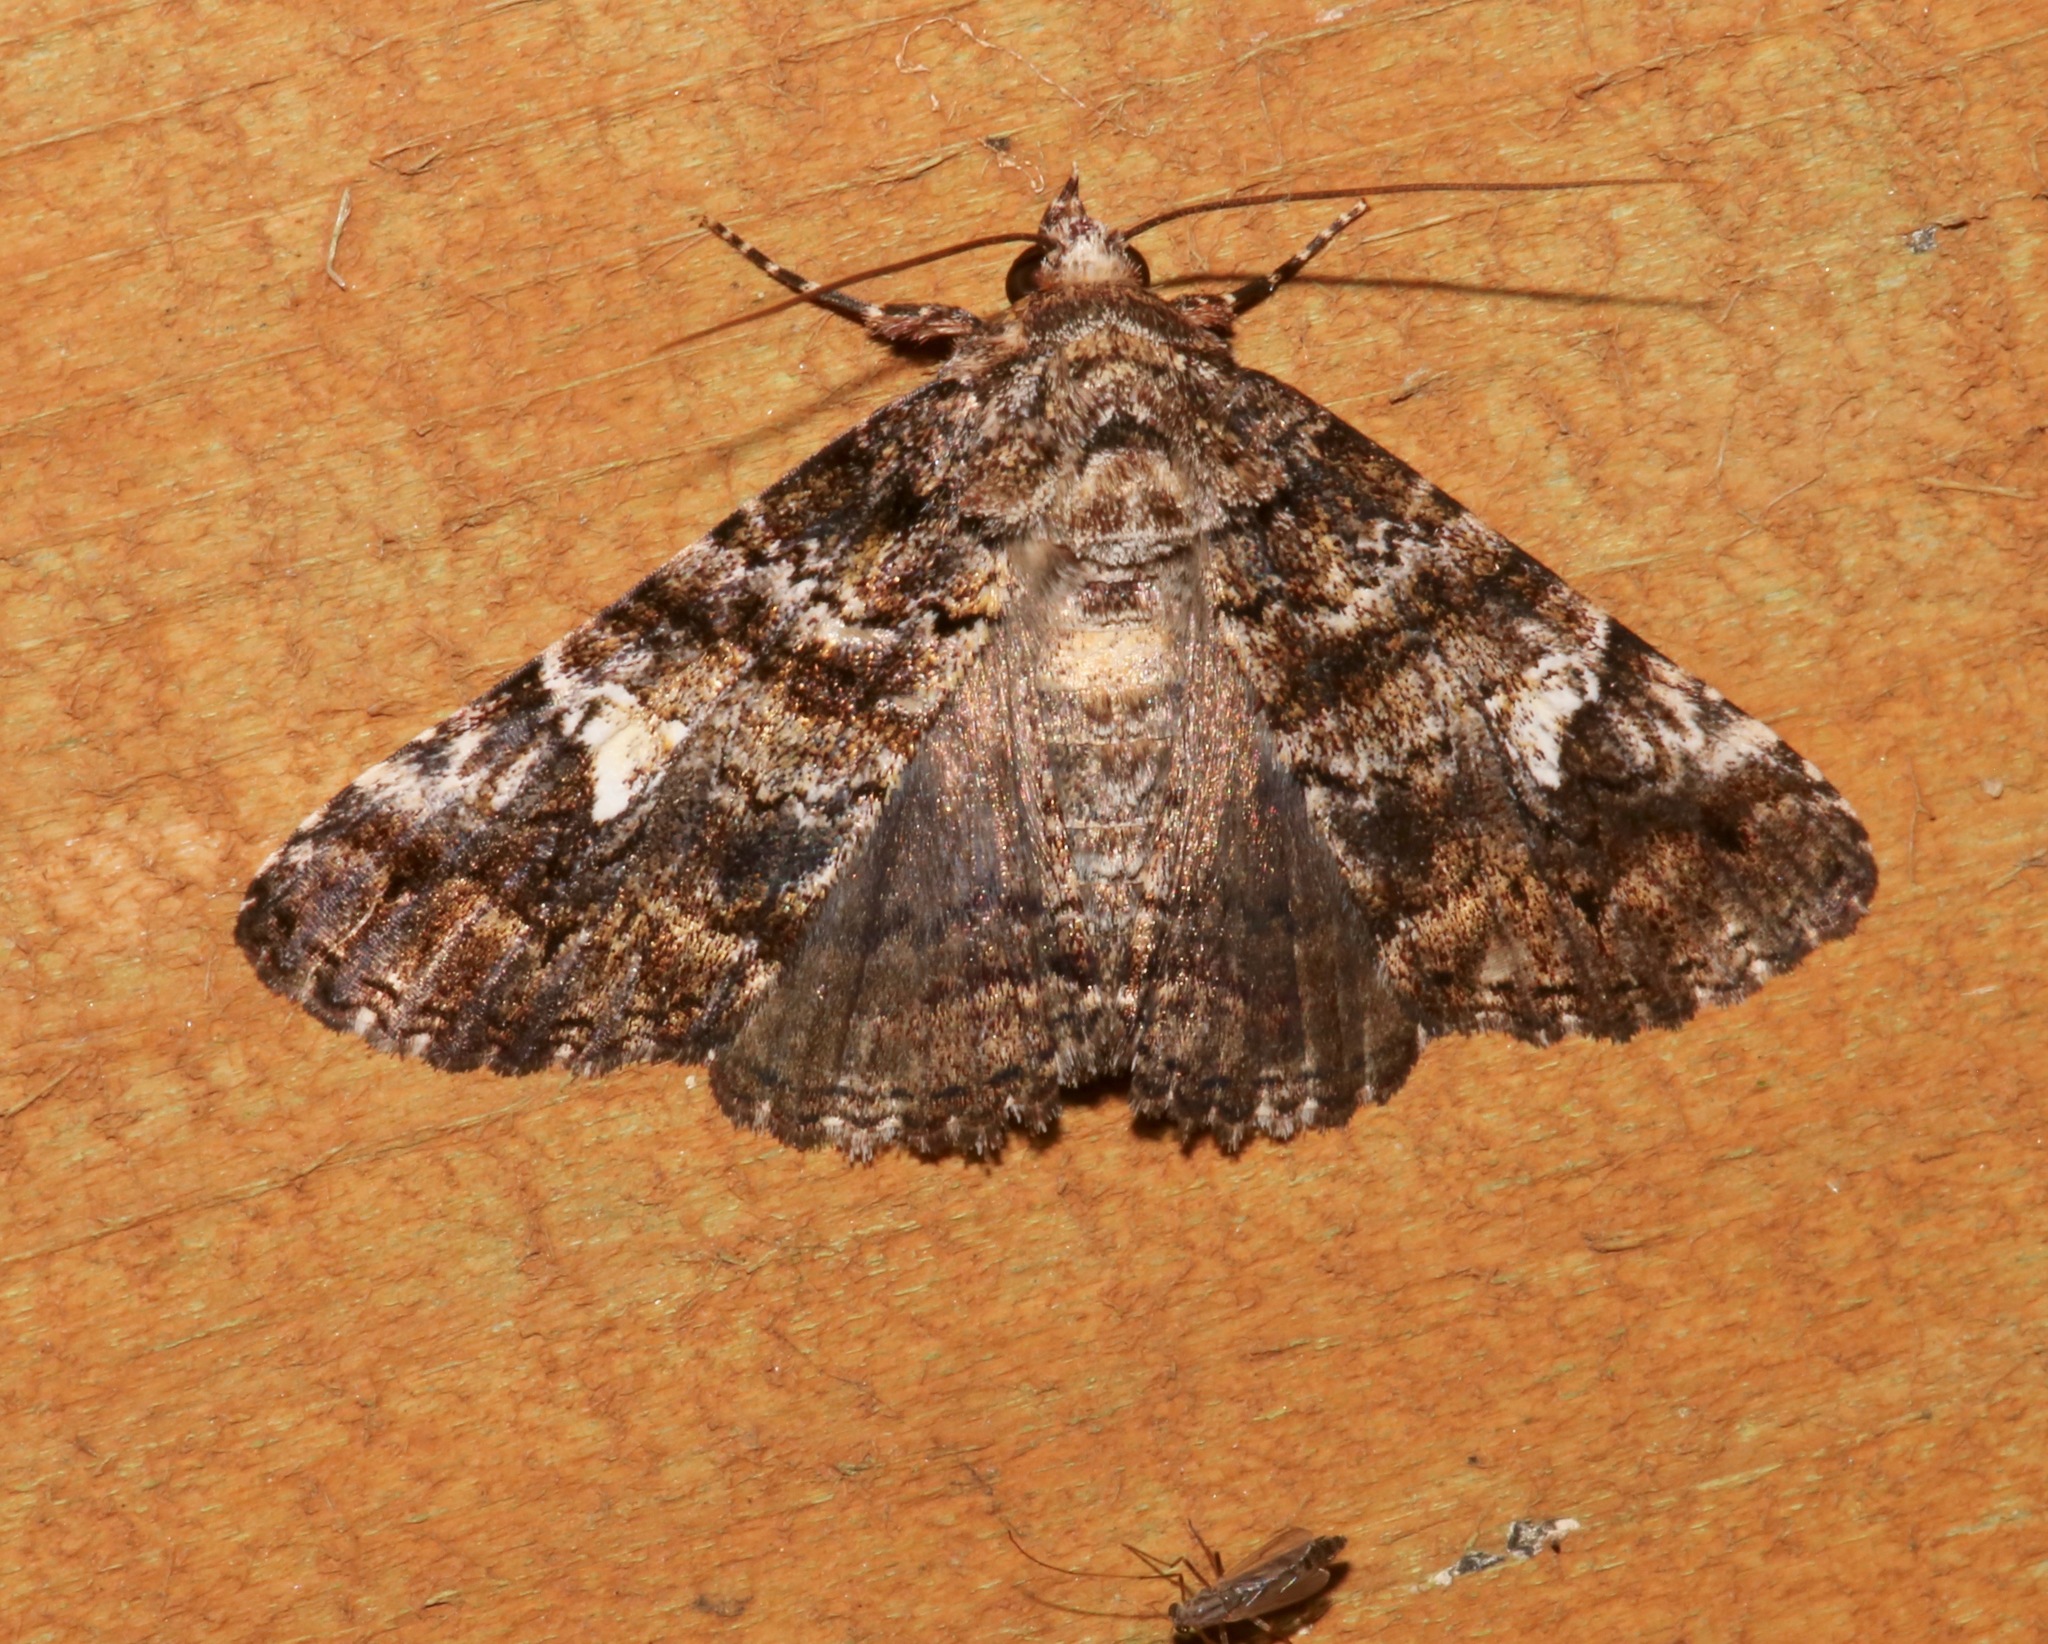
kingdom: Animalia
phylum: Arthropoda
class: Insecta
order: Lepidoptera
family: Erebidae
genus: Metria
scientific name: Metria amella
